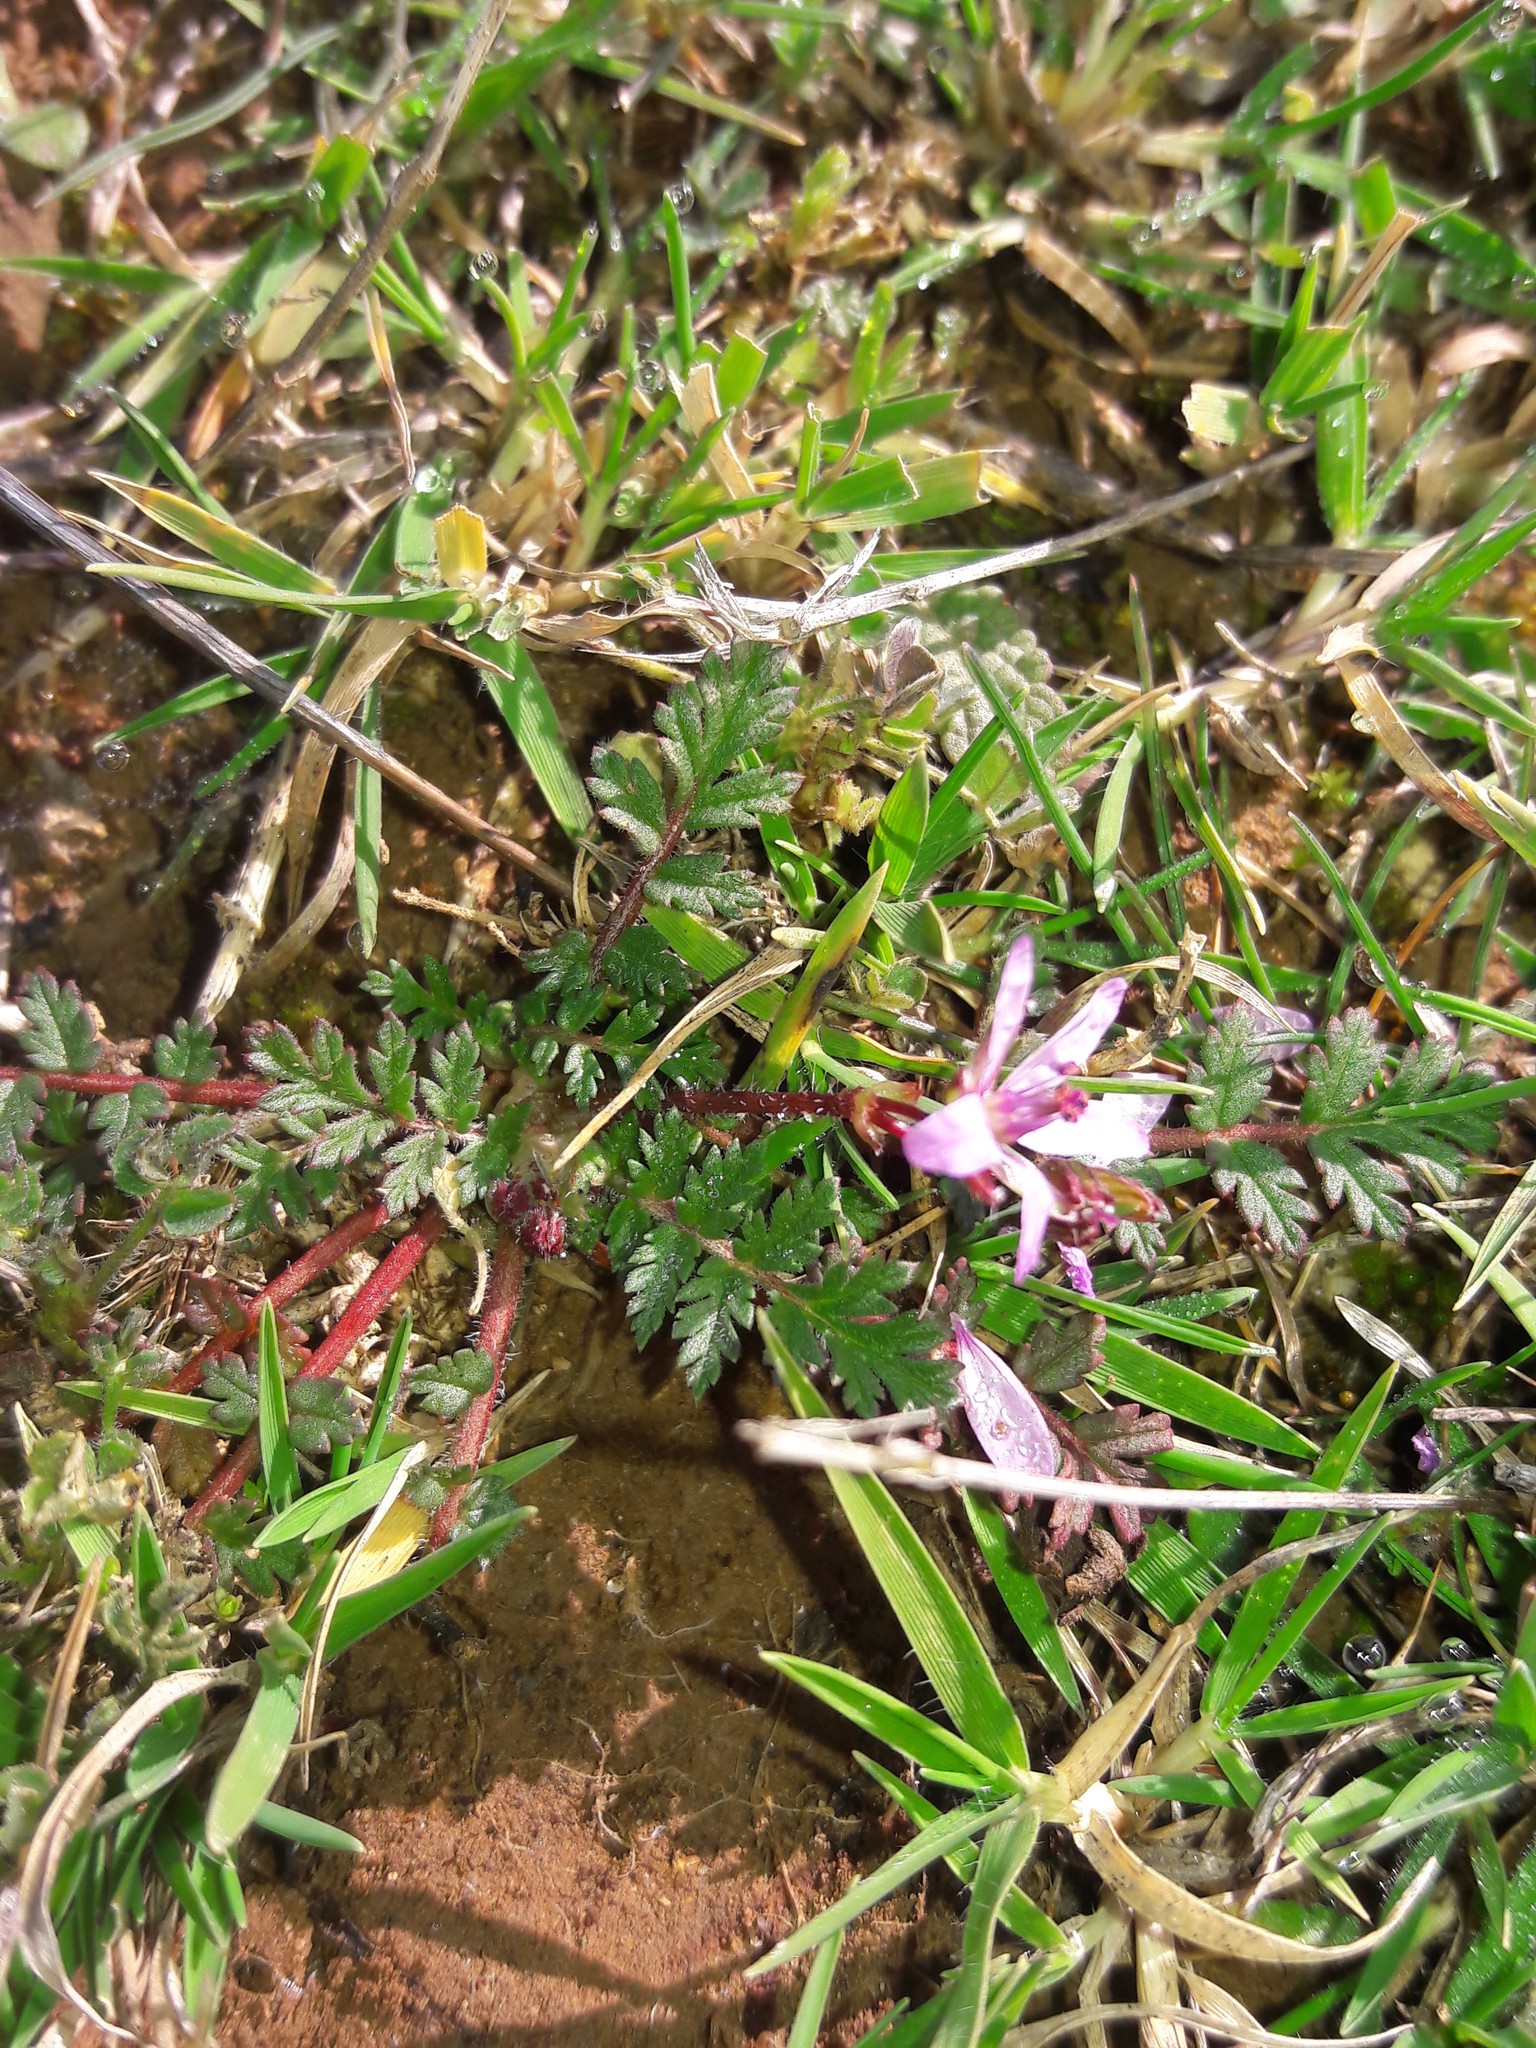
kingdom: Plantae
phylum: Tracheophyta
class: Magnoliopsida
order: Geraniales
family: Geraniaceae
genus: Erodium
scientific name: Erodium cicutarium
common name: Common stork's-bill
